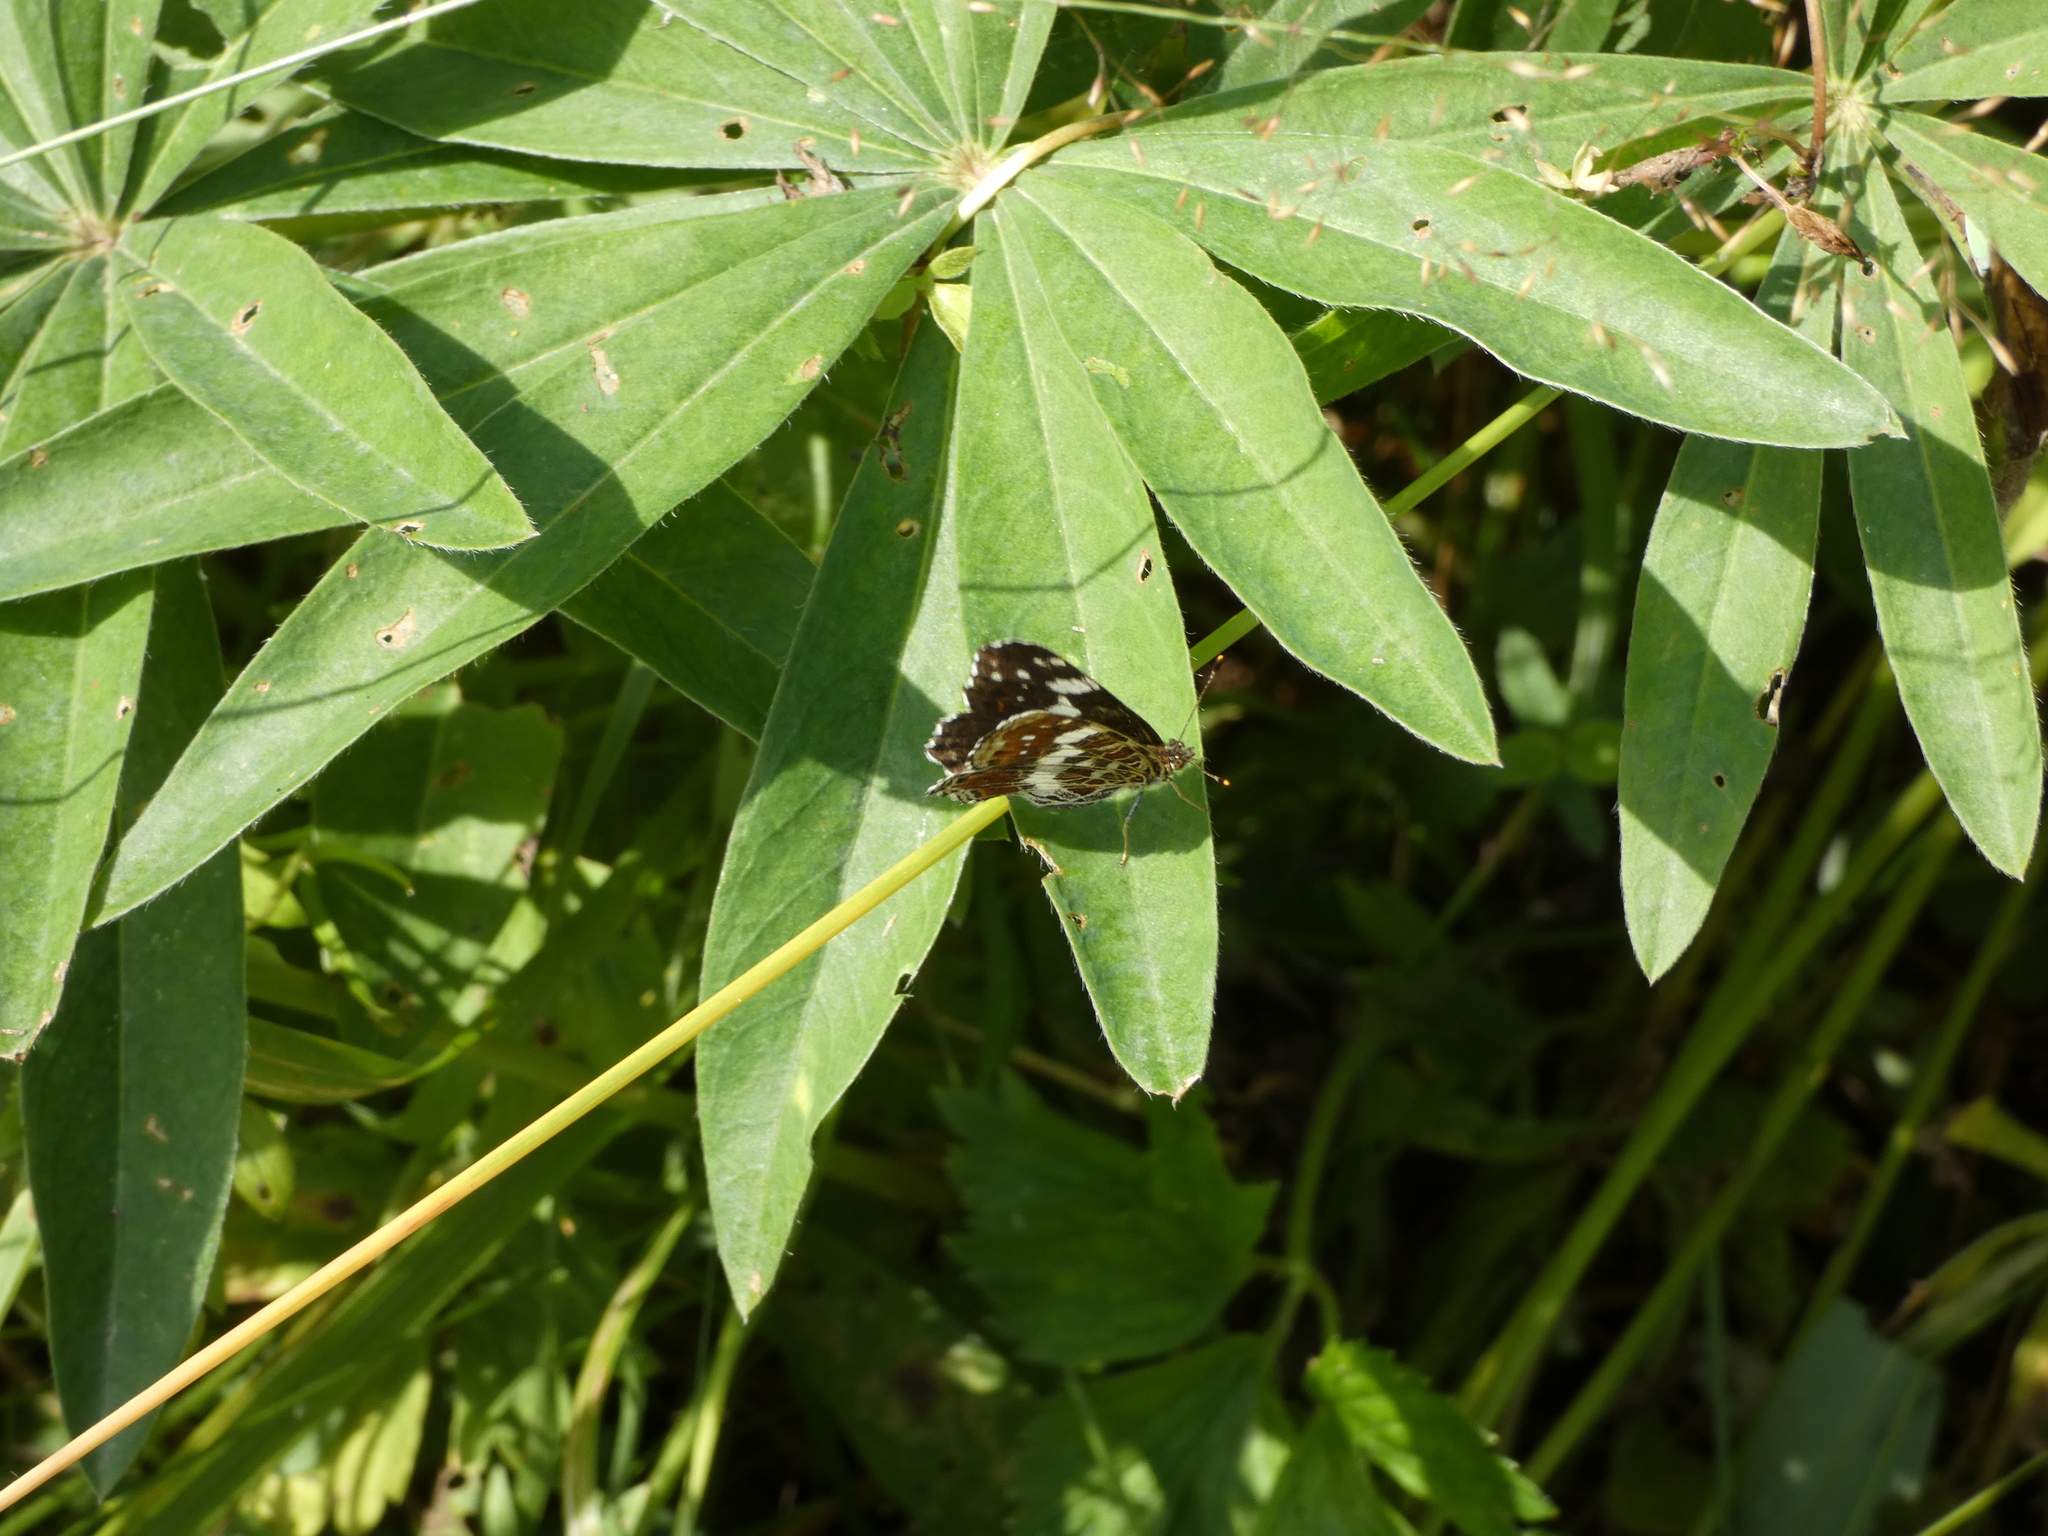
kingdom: Animalia
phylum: Arthropoda
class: Insecta
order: Lepidoptera
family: Nymphalidae
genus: Araschnia
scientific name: Araschnia levana
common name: Map butterfly
